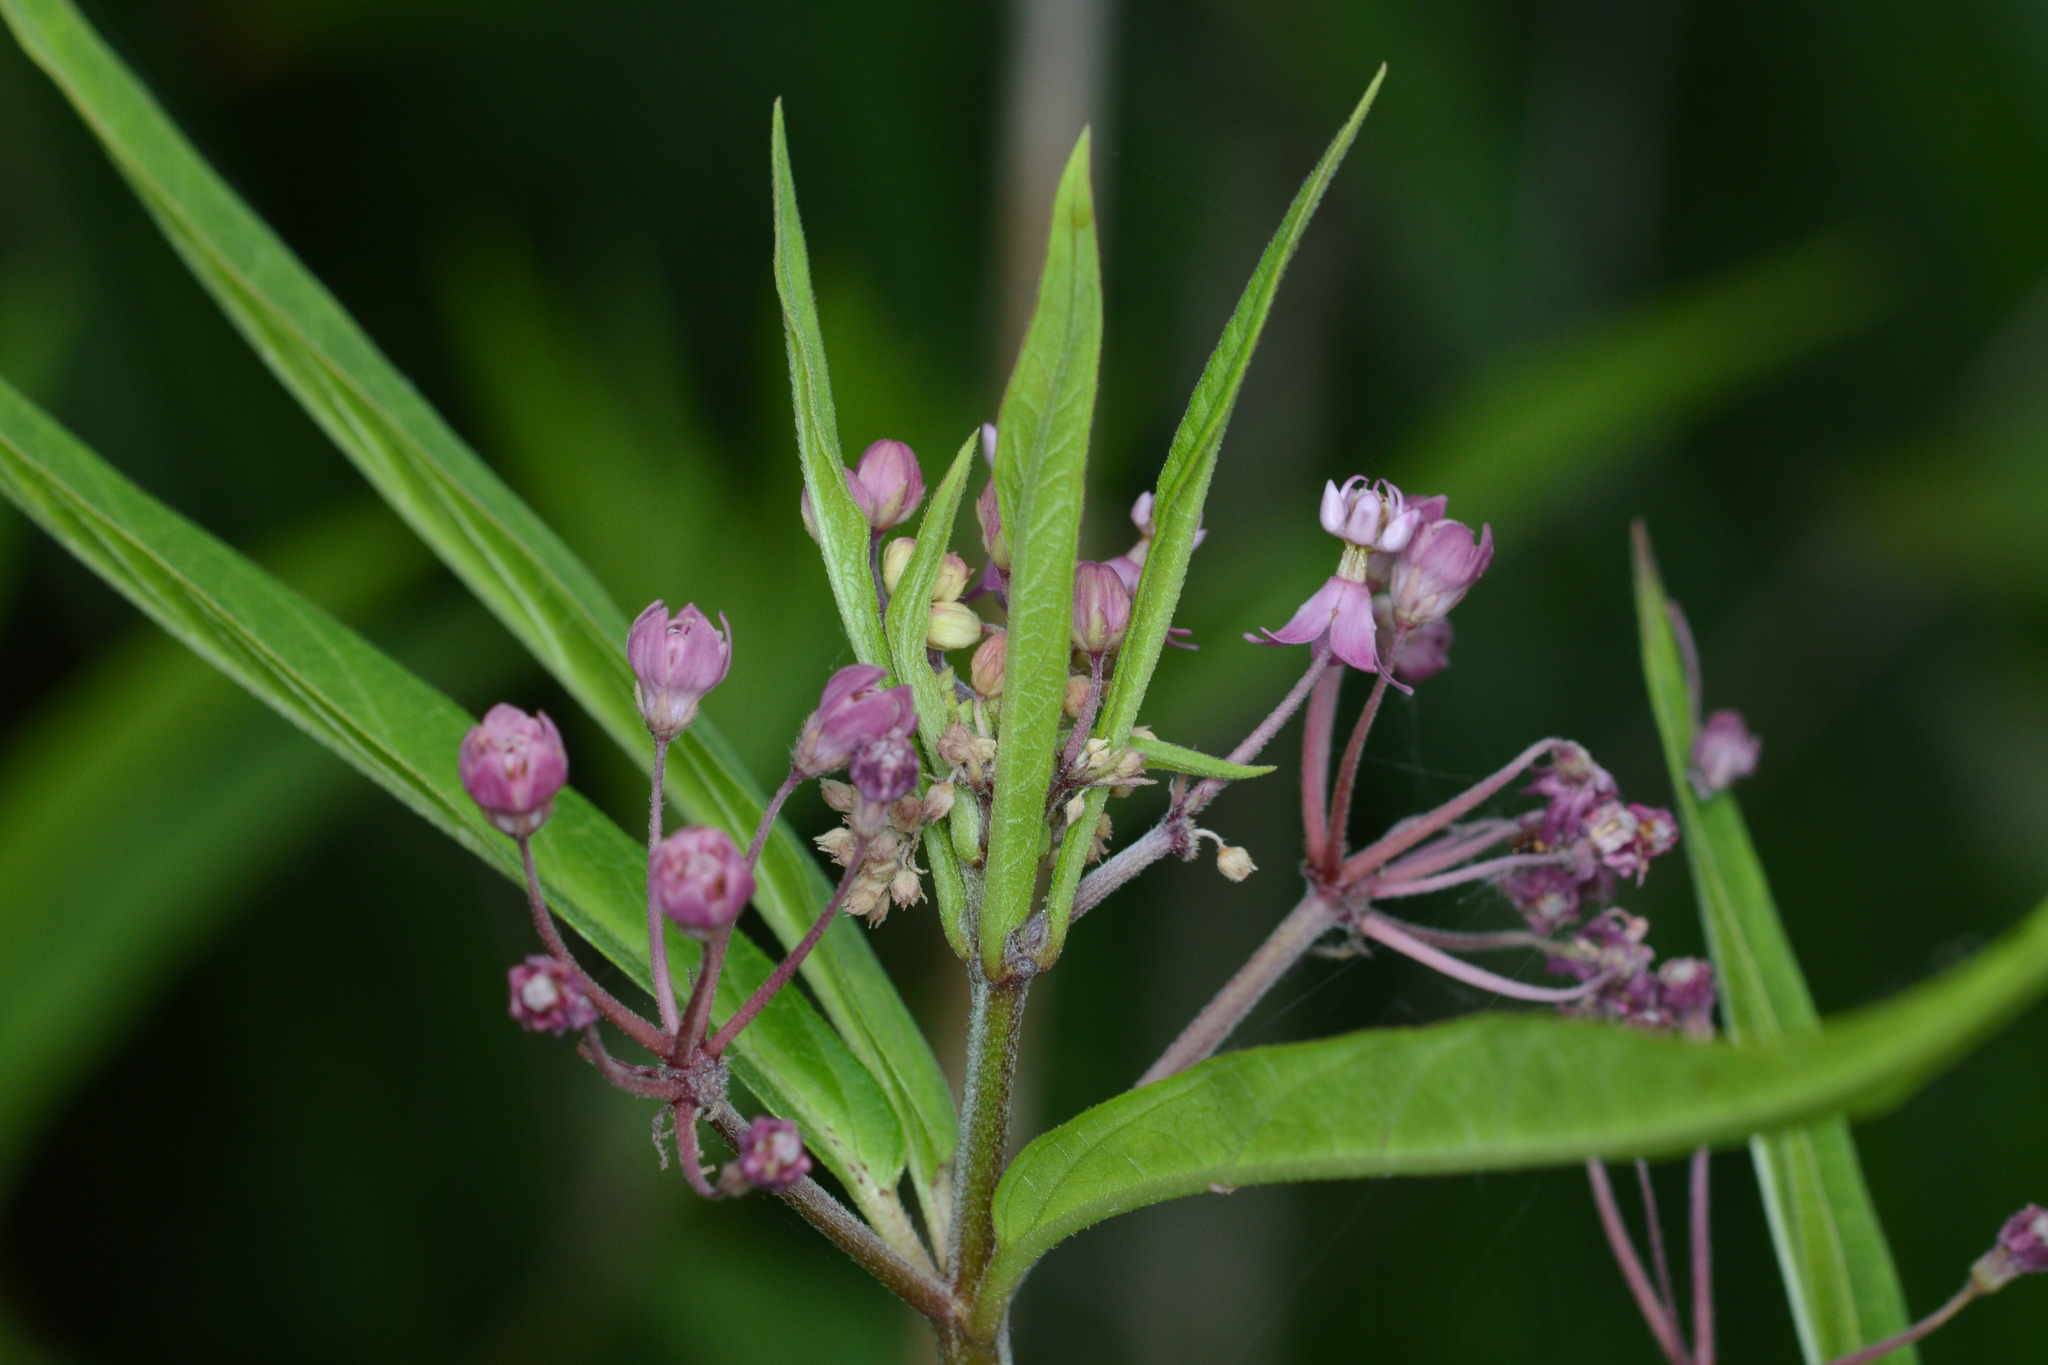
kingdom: Plantae
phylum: Tracheophyta
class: Magnoliopsida
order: Gentianales
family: Apocynaceae
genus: Asclepias
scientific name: Asclepias incarnata
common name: Swamp milkweed
